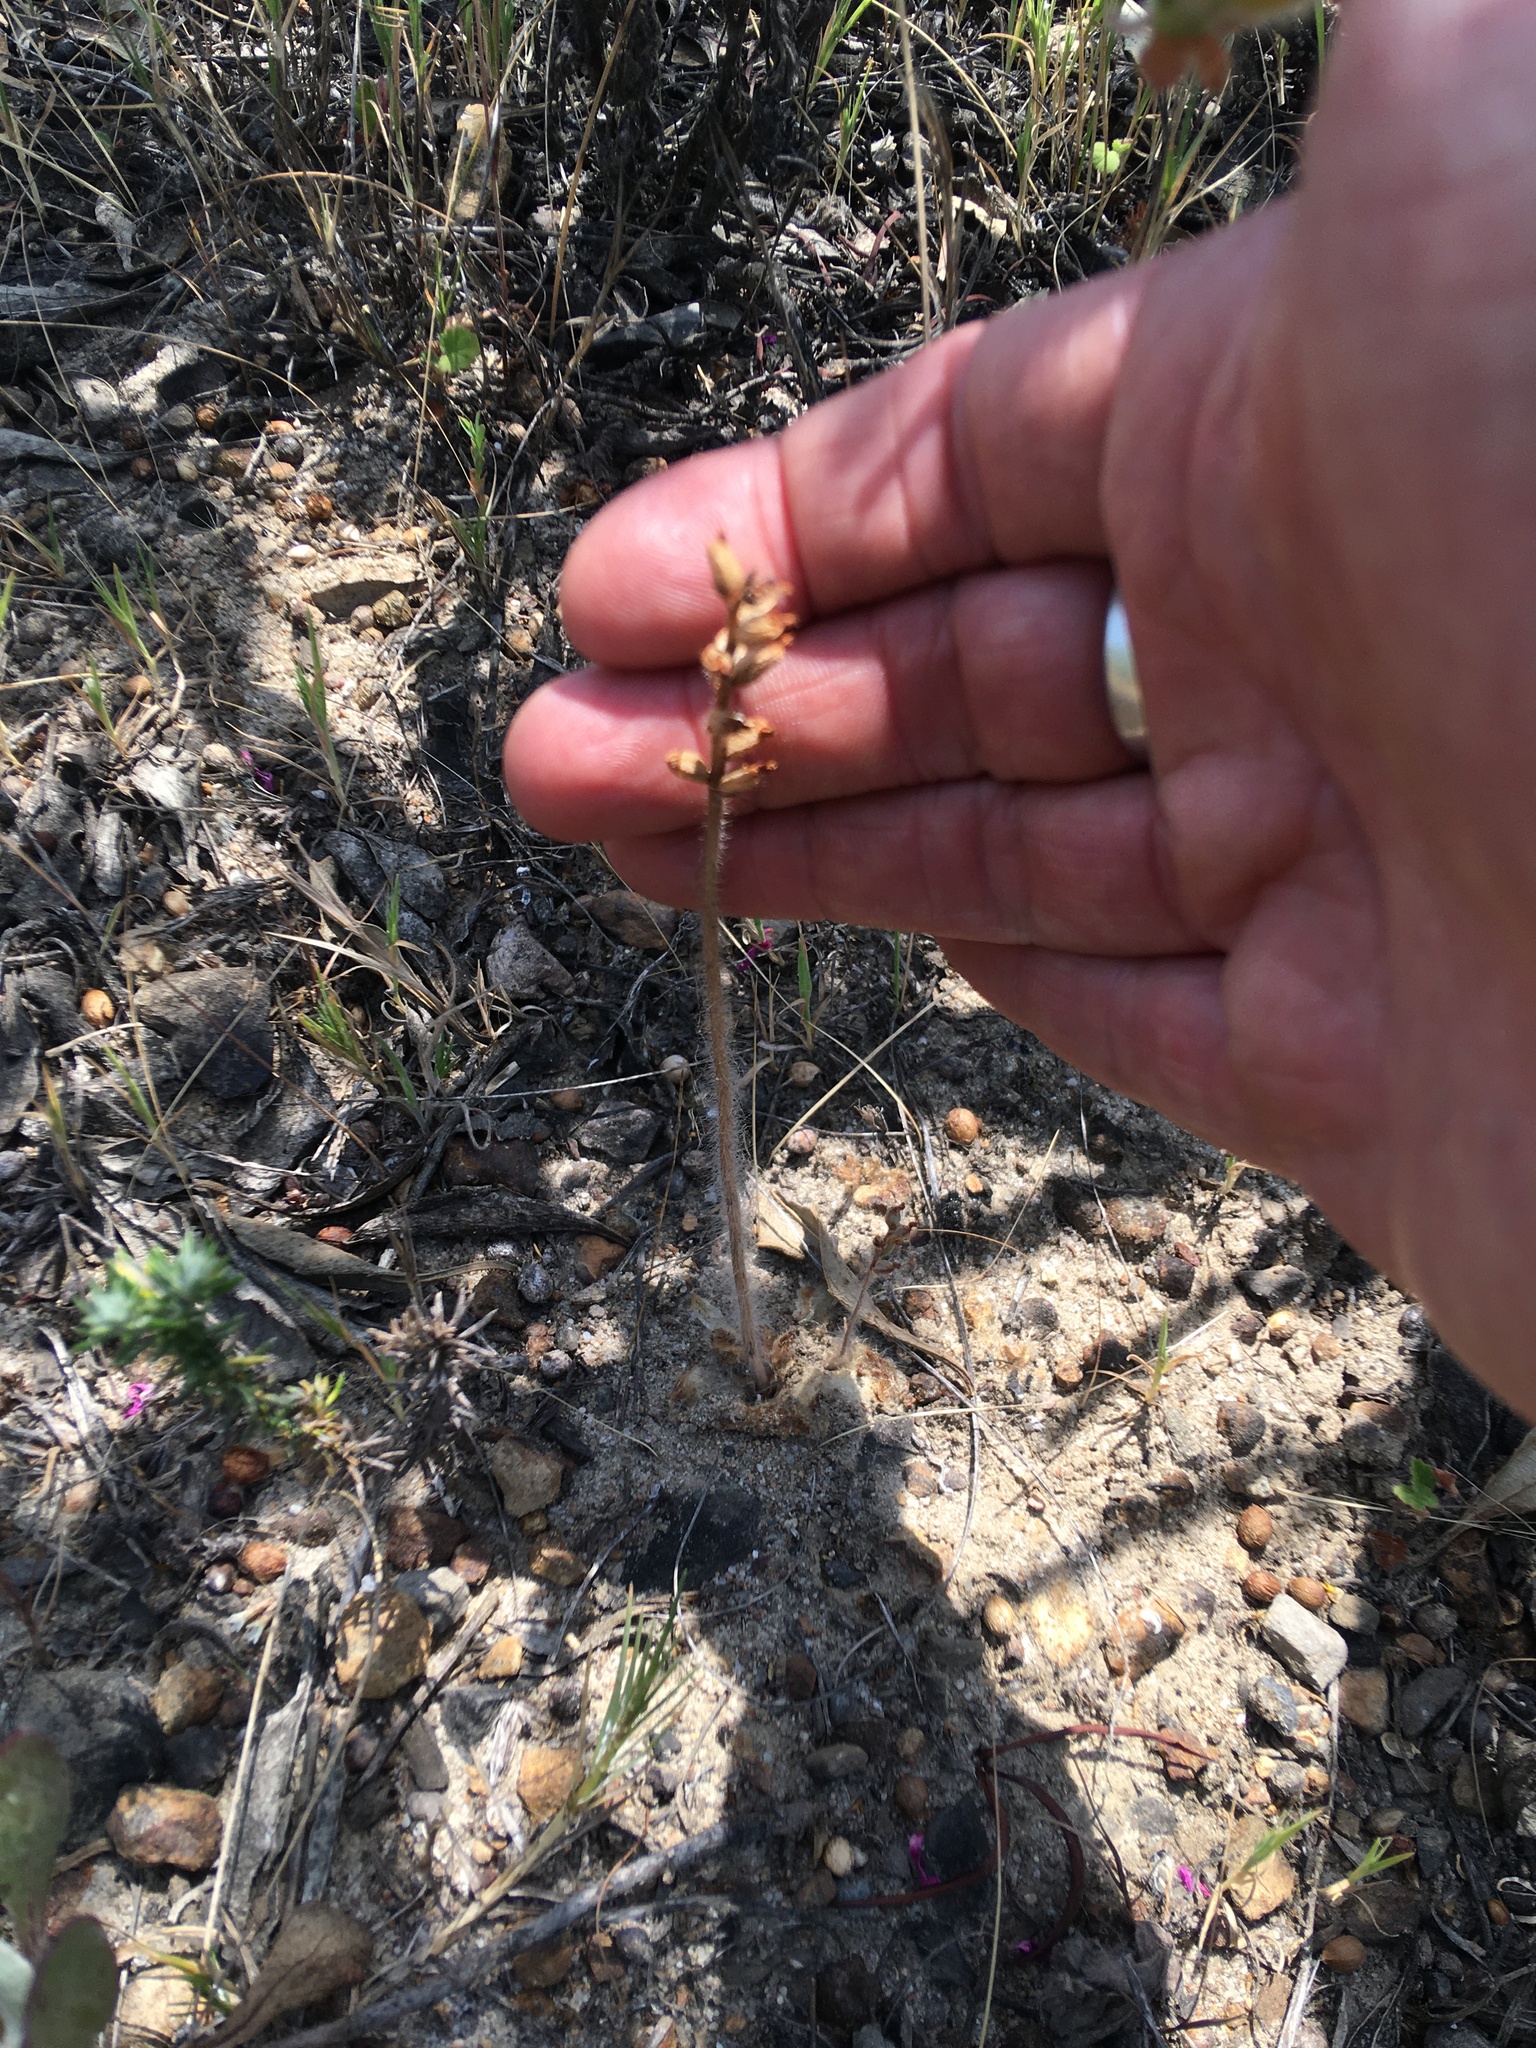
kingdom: Plantae
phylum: Tracheophyta
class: Liliopsida
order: Asparagales
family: Orchidaceae
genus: Holothrix
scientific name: Holothrix villosa
